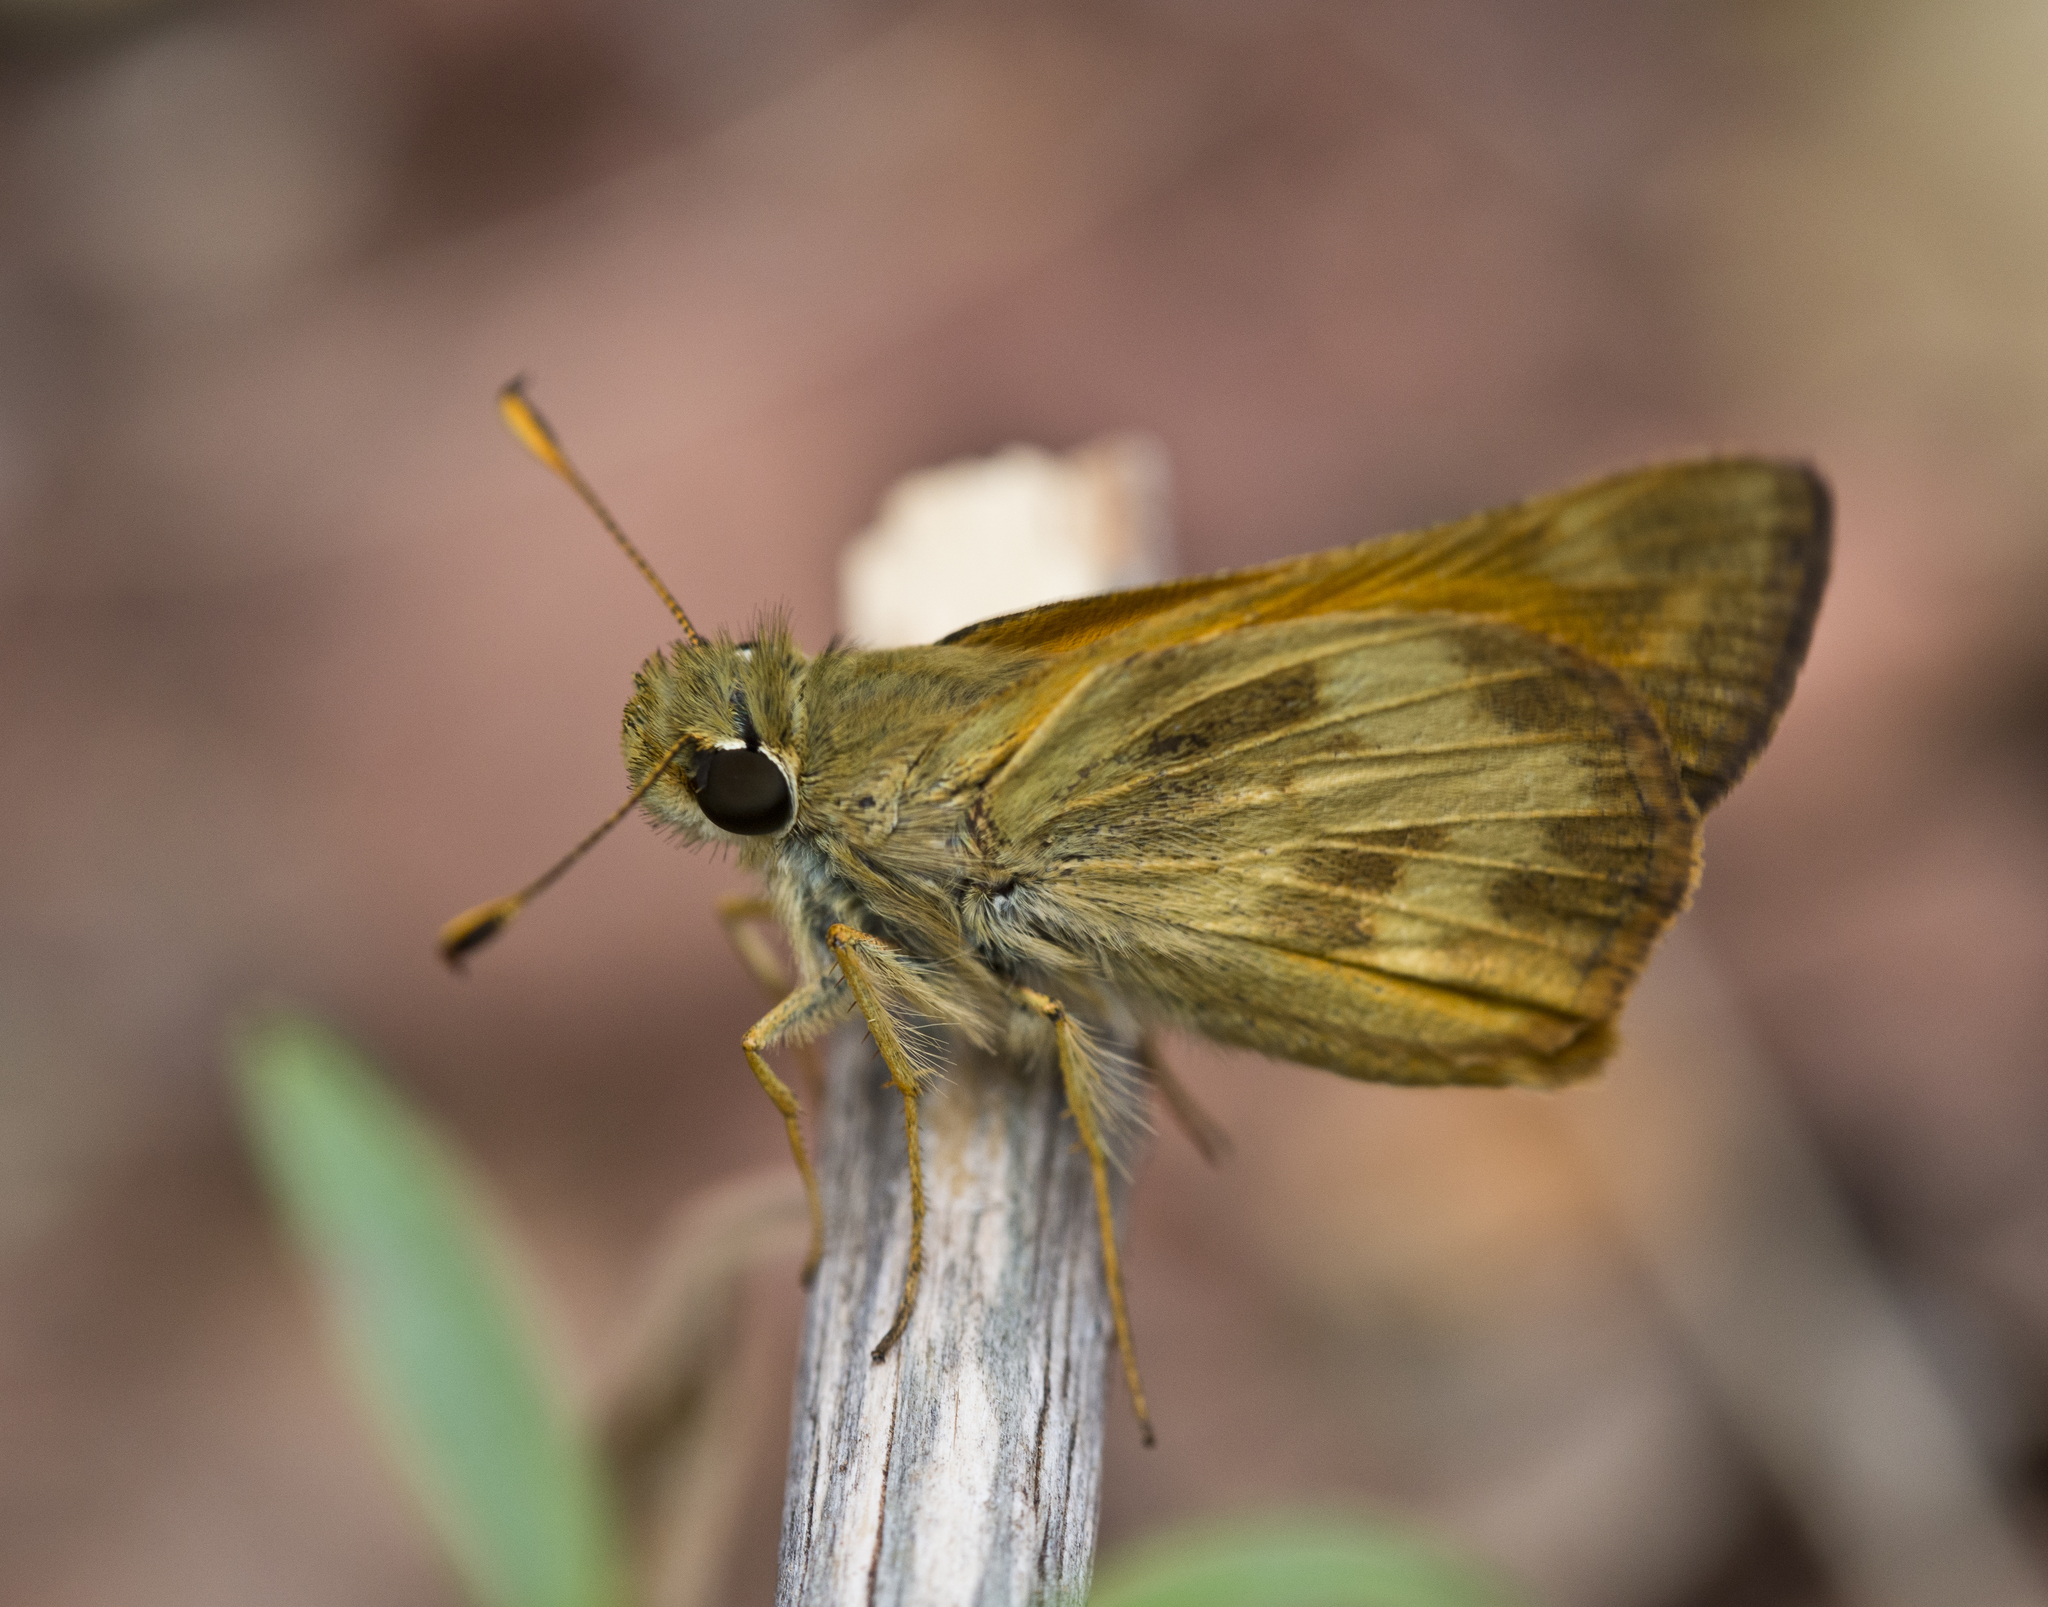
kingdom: Animalia
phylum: Arthropoda
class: Insecta
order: Lepidoptera
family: Hesperiidae
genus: Lon
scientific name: Lon taxiles
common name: Taxiles skipper
